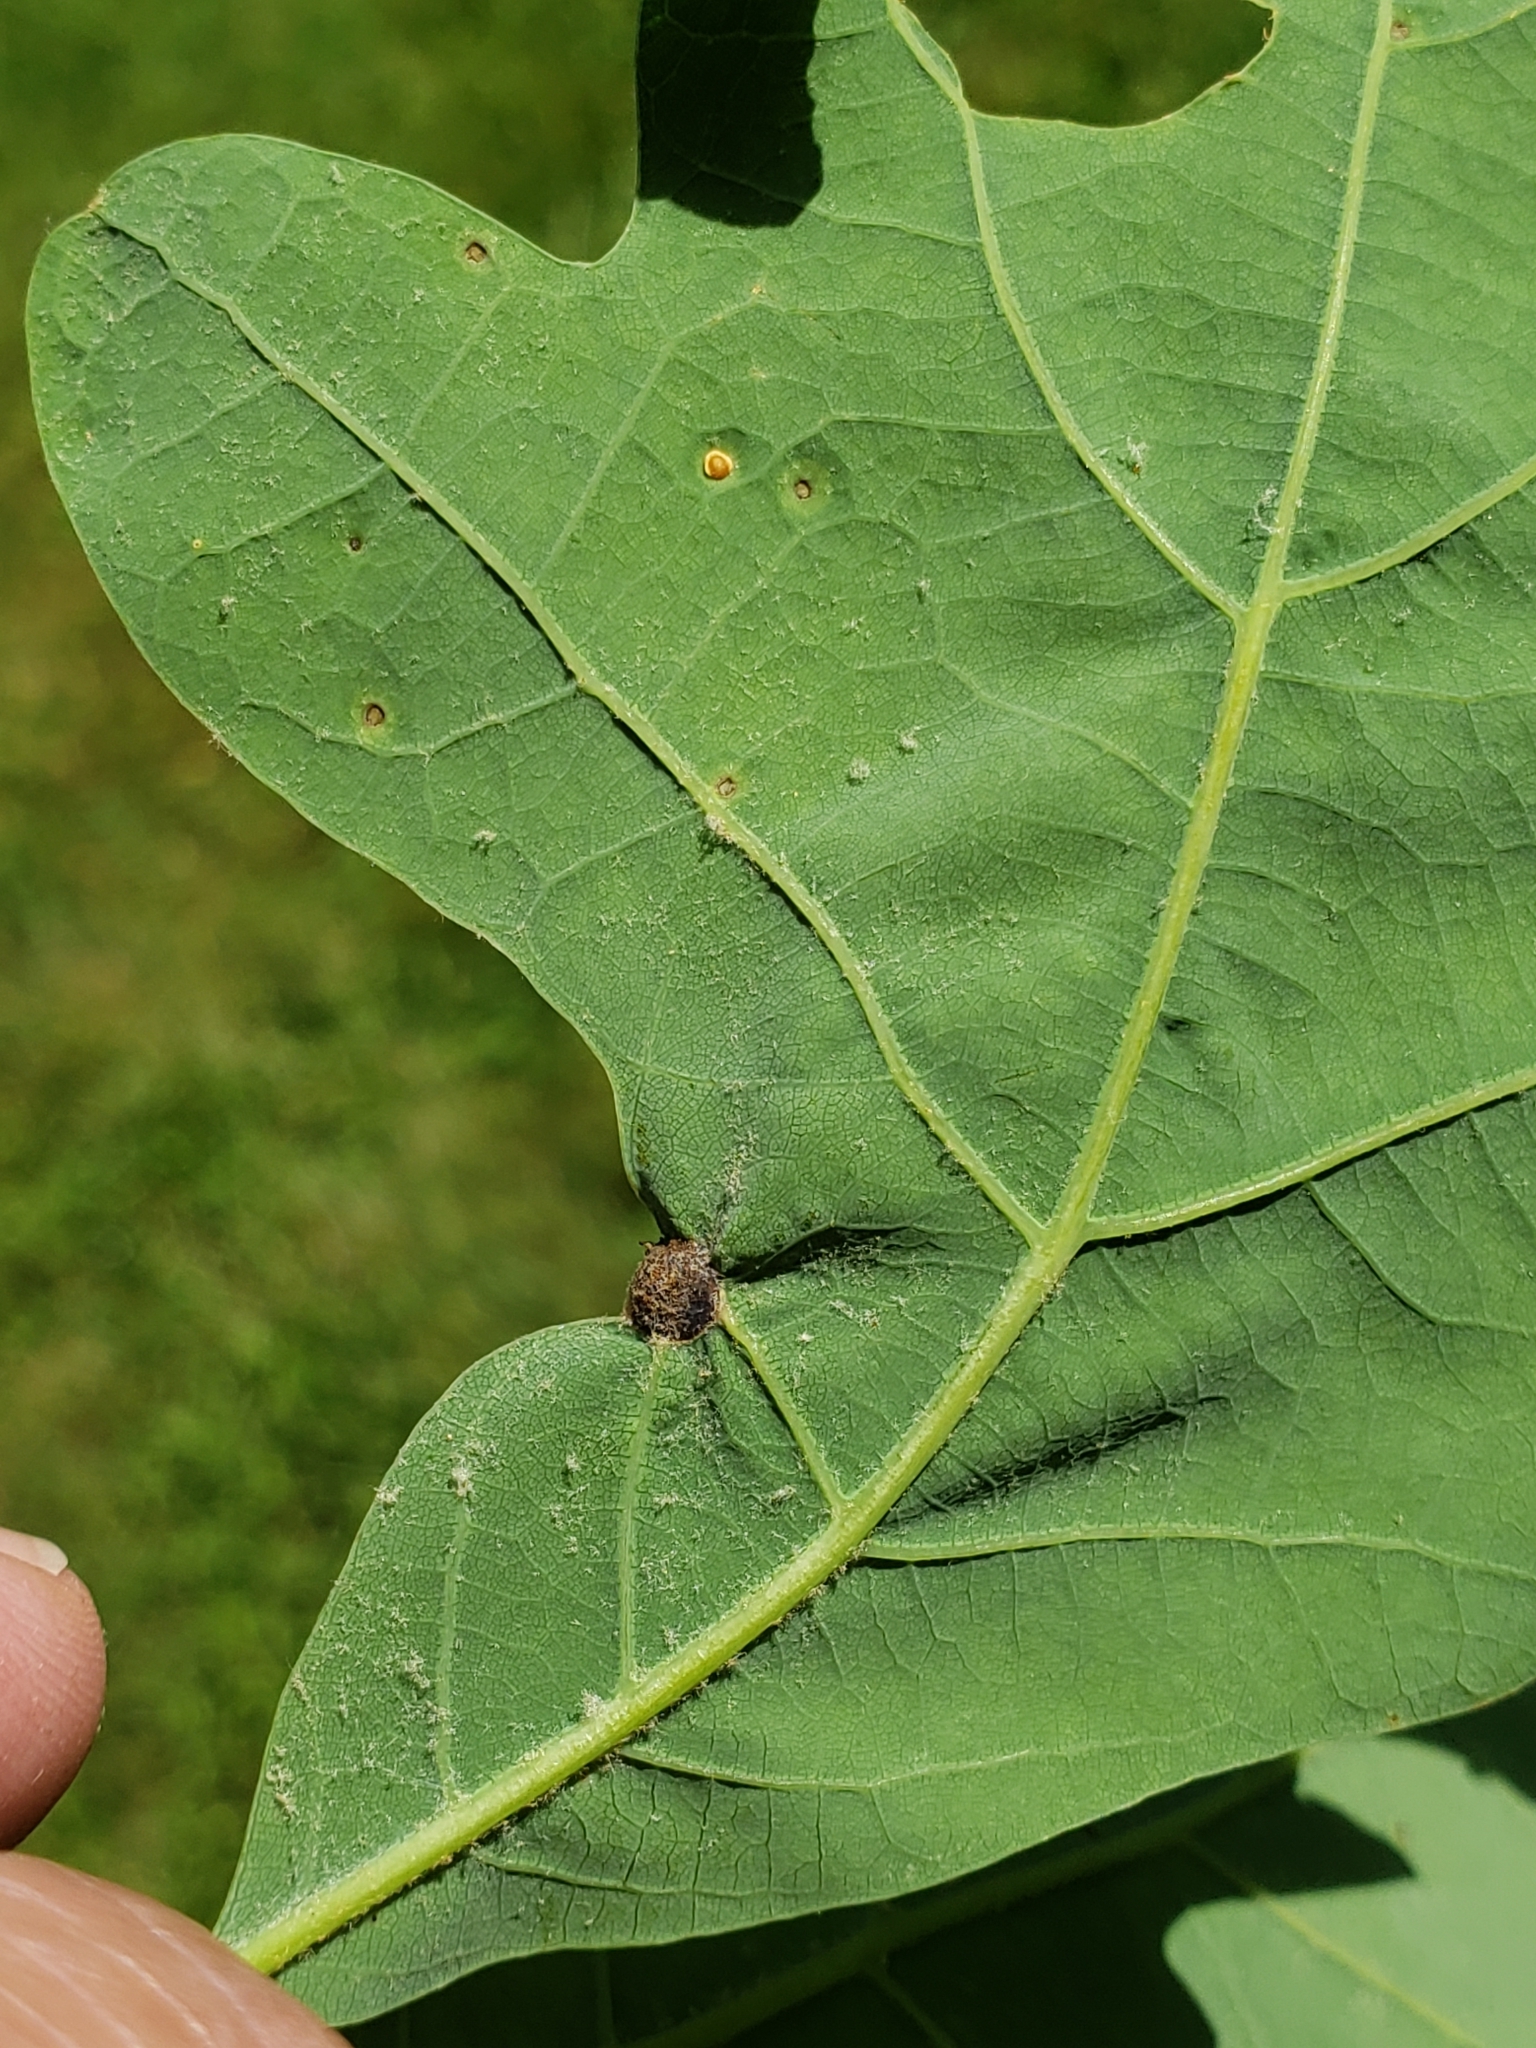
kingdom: Animalia
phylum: Arthropoda
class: Insecta
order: Hymenoptera
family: Cynipidae
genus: Andricus
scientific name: Andricus
